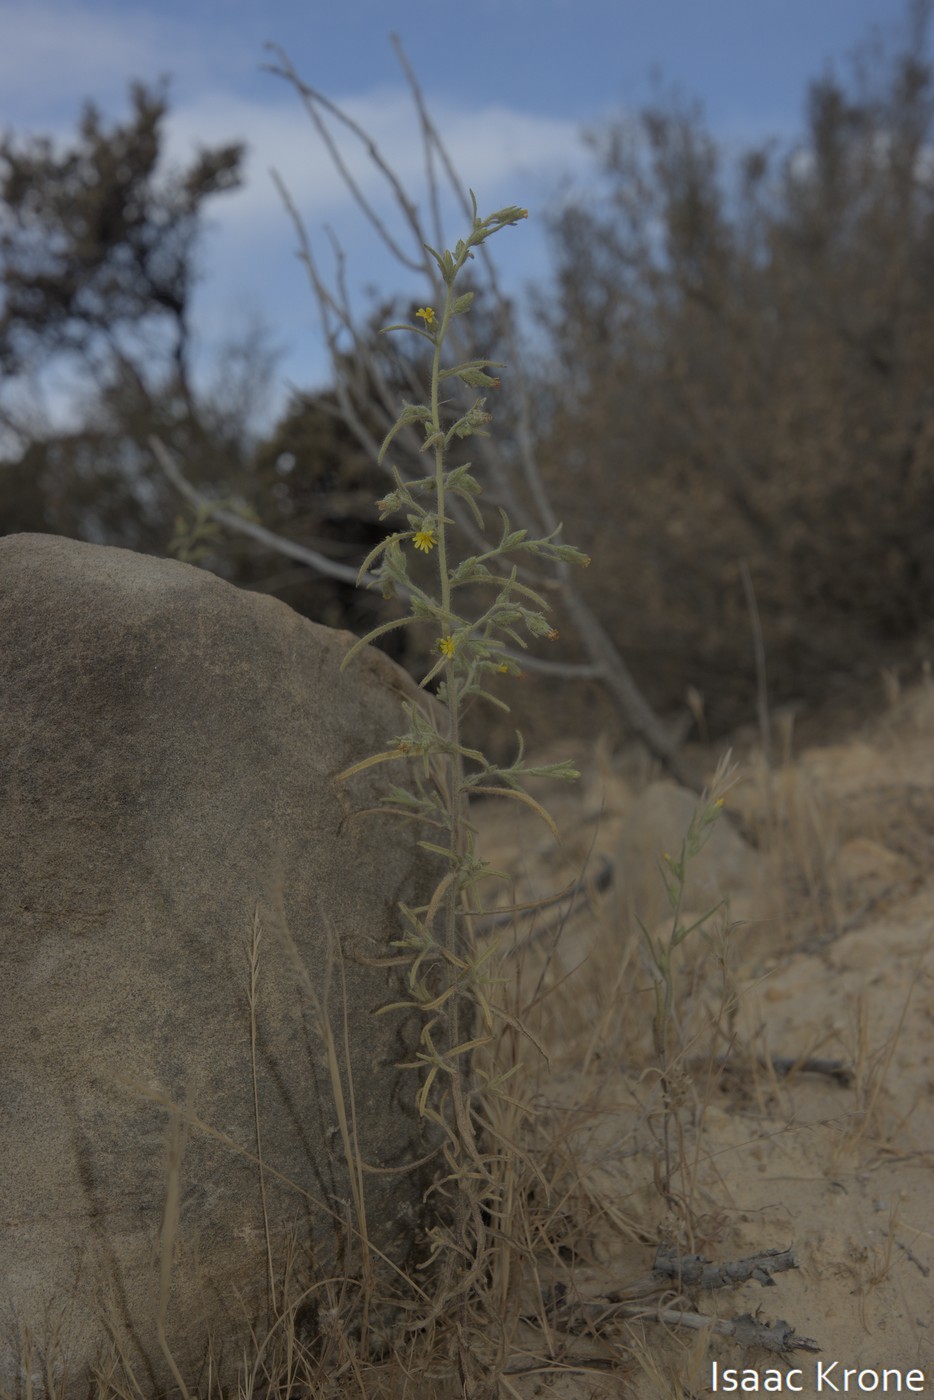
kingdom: Plantae
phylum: Tracheophyta
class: Magnoliopsida
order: Asterales
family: Asteraceae
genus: Dittrichia
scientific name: Dittrichia graveolens
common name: Stinking fleabane
